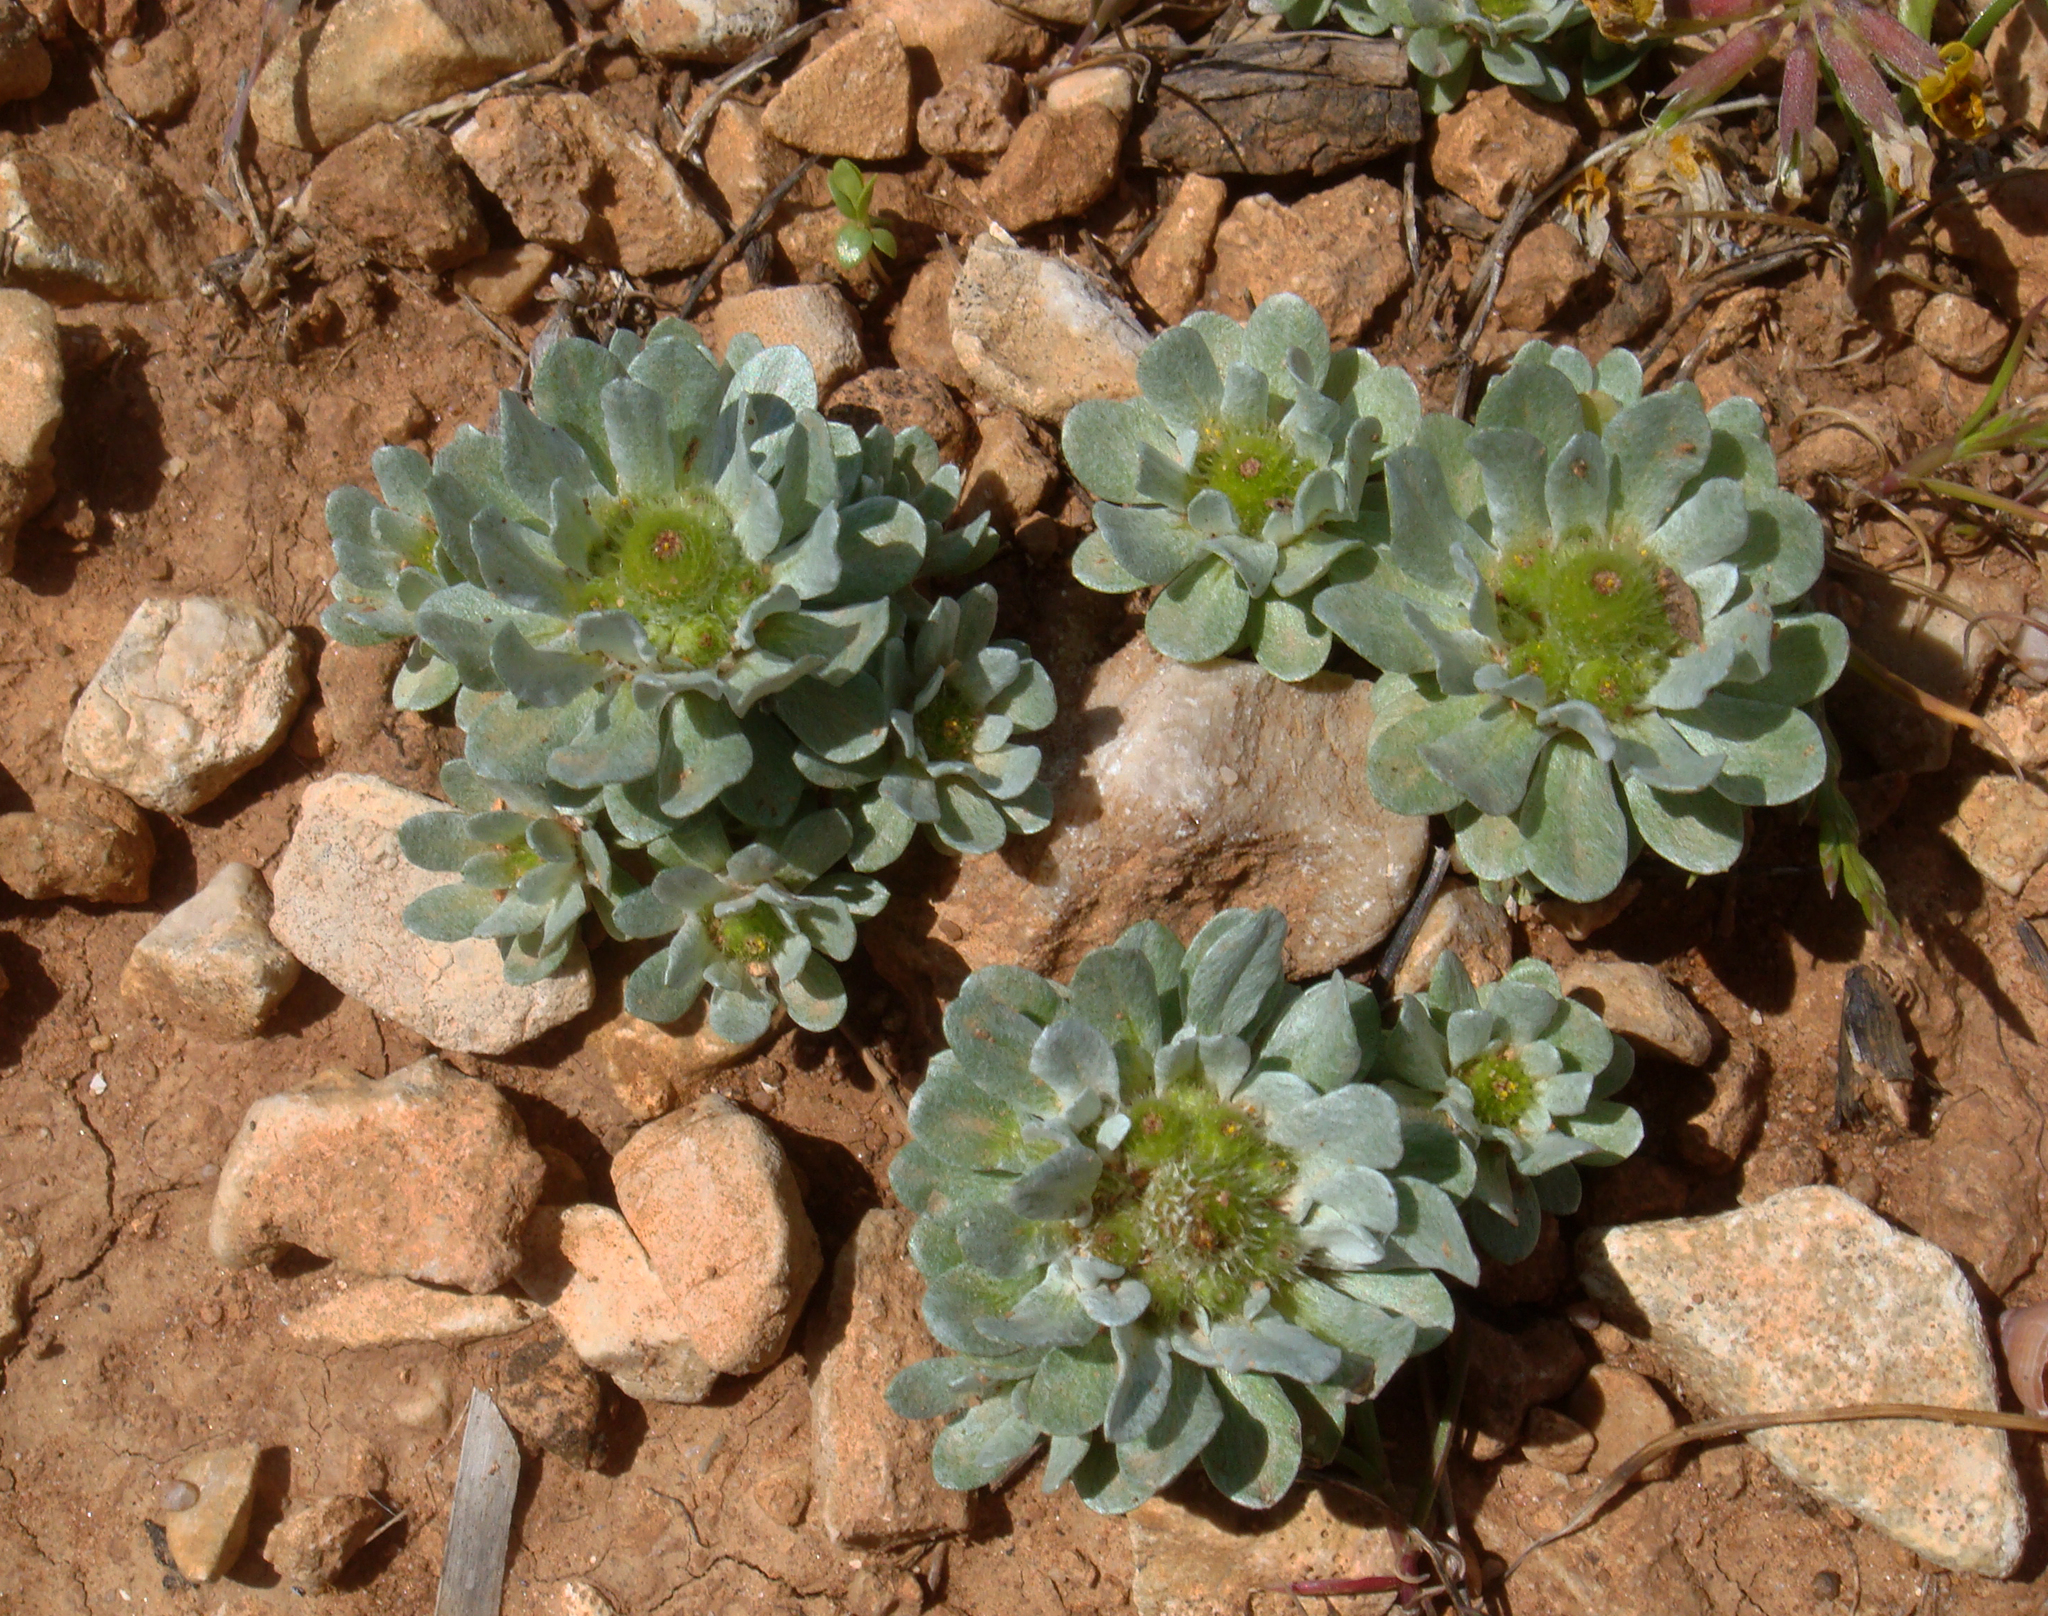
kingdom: Plantae
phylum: Tracheophyta
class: Magnoliopsida
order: Asterales
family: Asteraceae
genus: Filago
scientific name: Filago pygmaea
